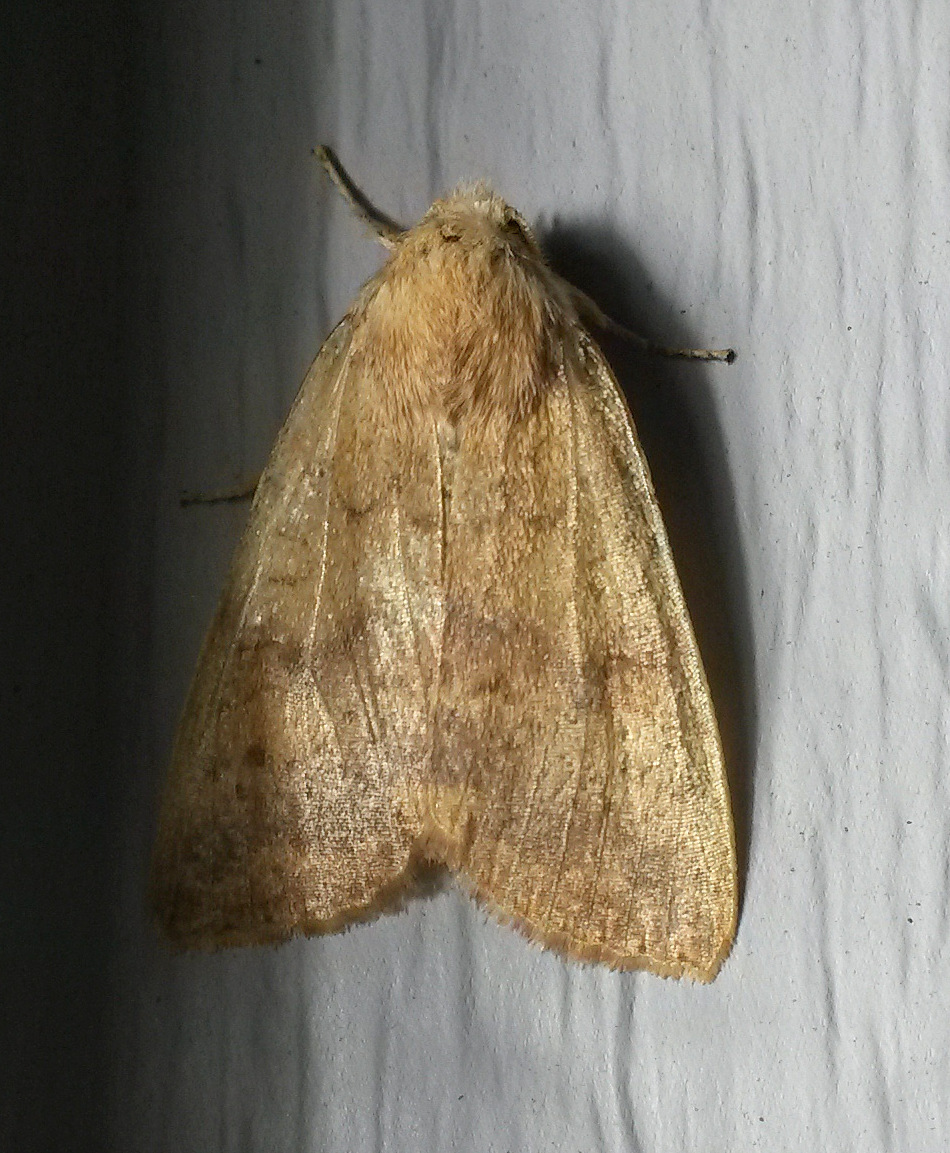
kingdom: Animalia
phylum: Arthropoda
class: Insecta
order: Lepidoptera
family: Noctuidae
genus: Agrochola
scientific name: Agrochola bicolorago
